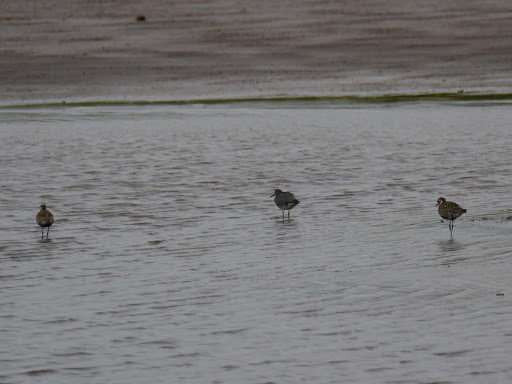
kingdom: Animalia
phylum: Chordata
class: Aves
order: Charadriiformes
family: Scolopacidae
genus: Tringa
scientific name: Tringa incana
